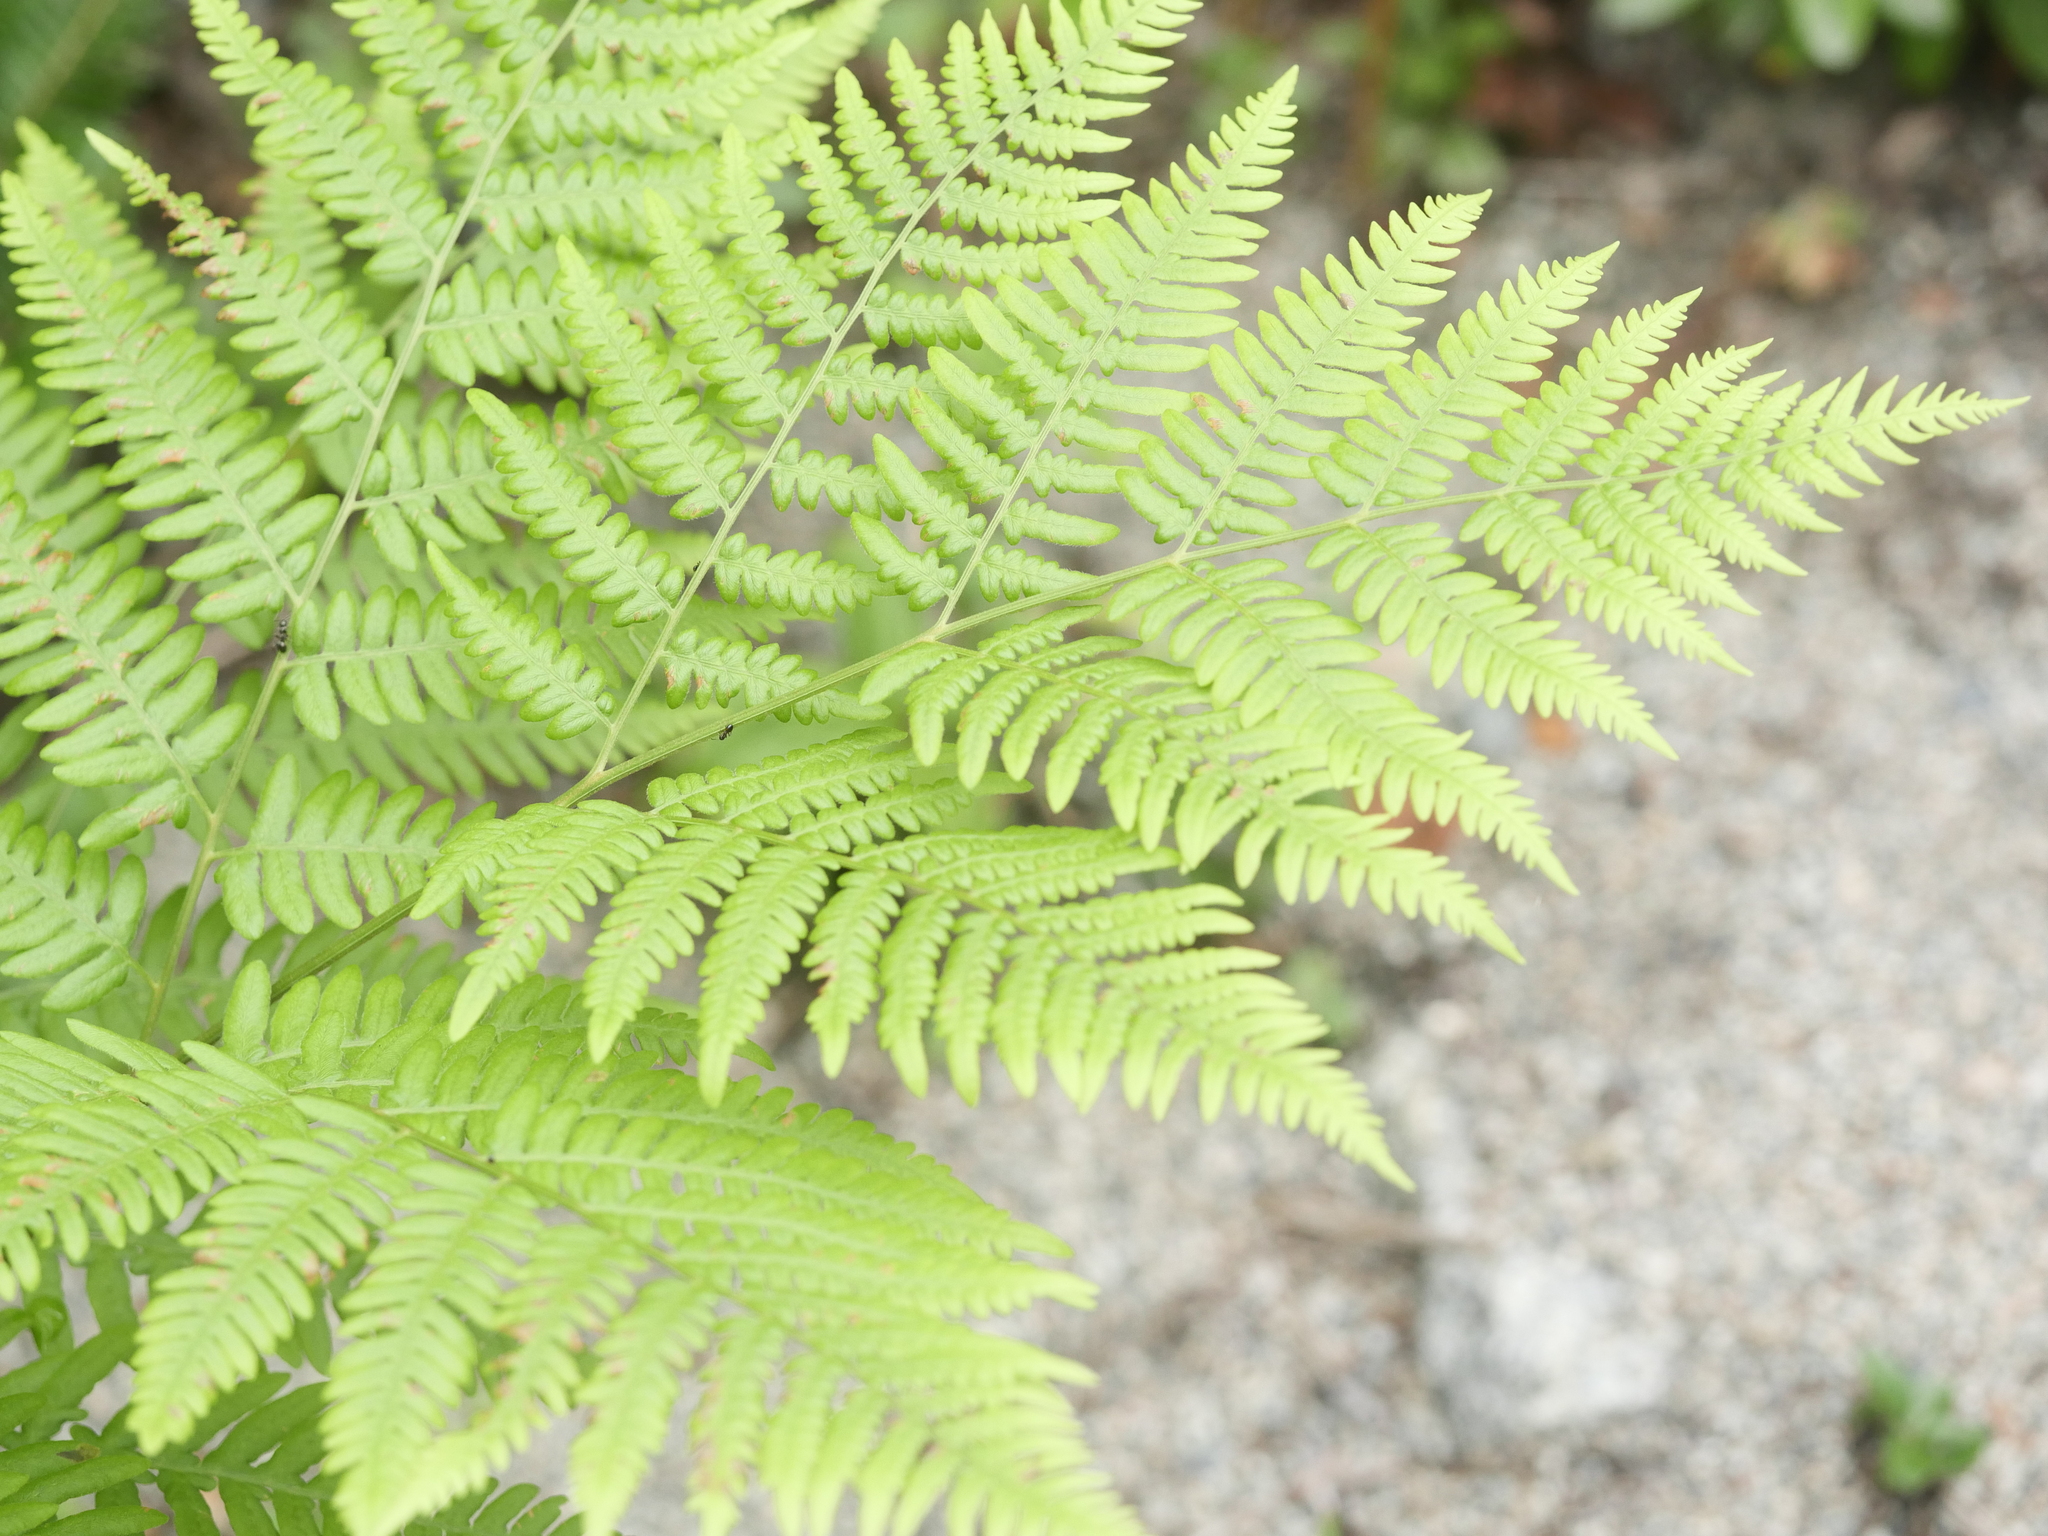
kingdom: Plantae
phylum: Tracheophyta
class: Polypodiopsida
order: Polypodiales
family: Dennstaedtiaceae
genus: Pteridium
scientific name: Pteridium aquilinum
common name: Bracken
